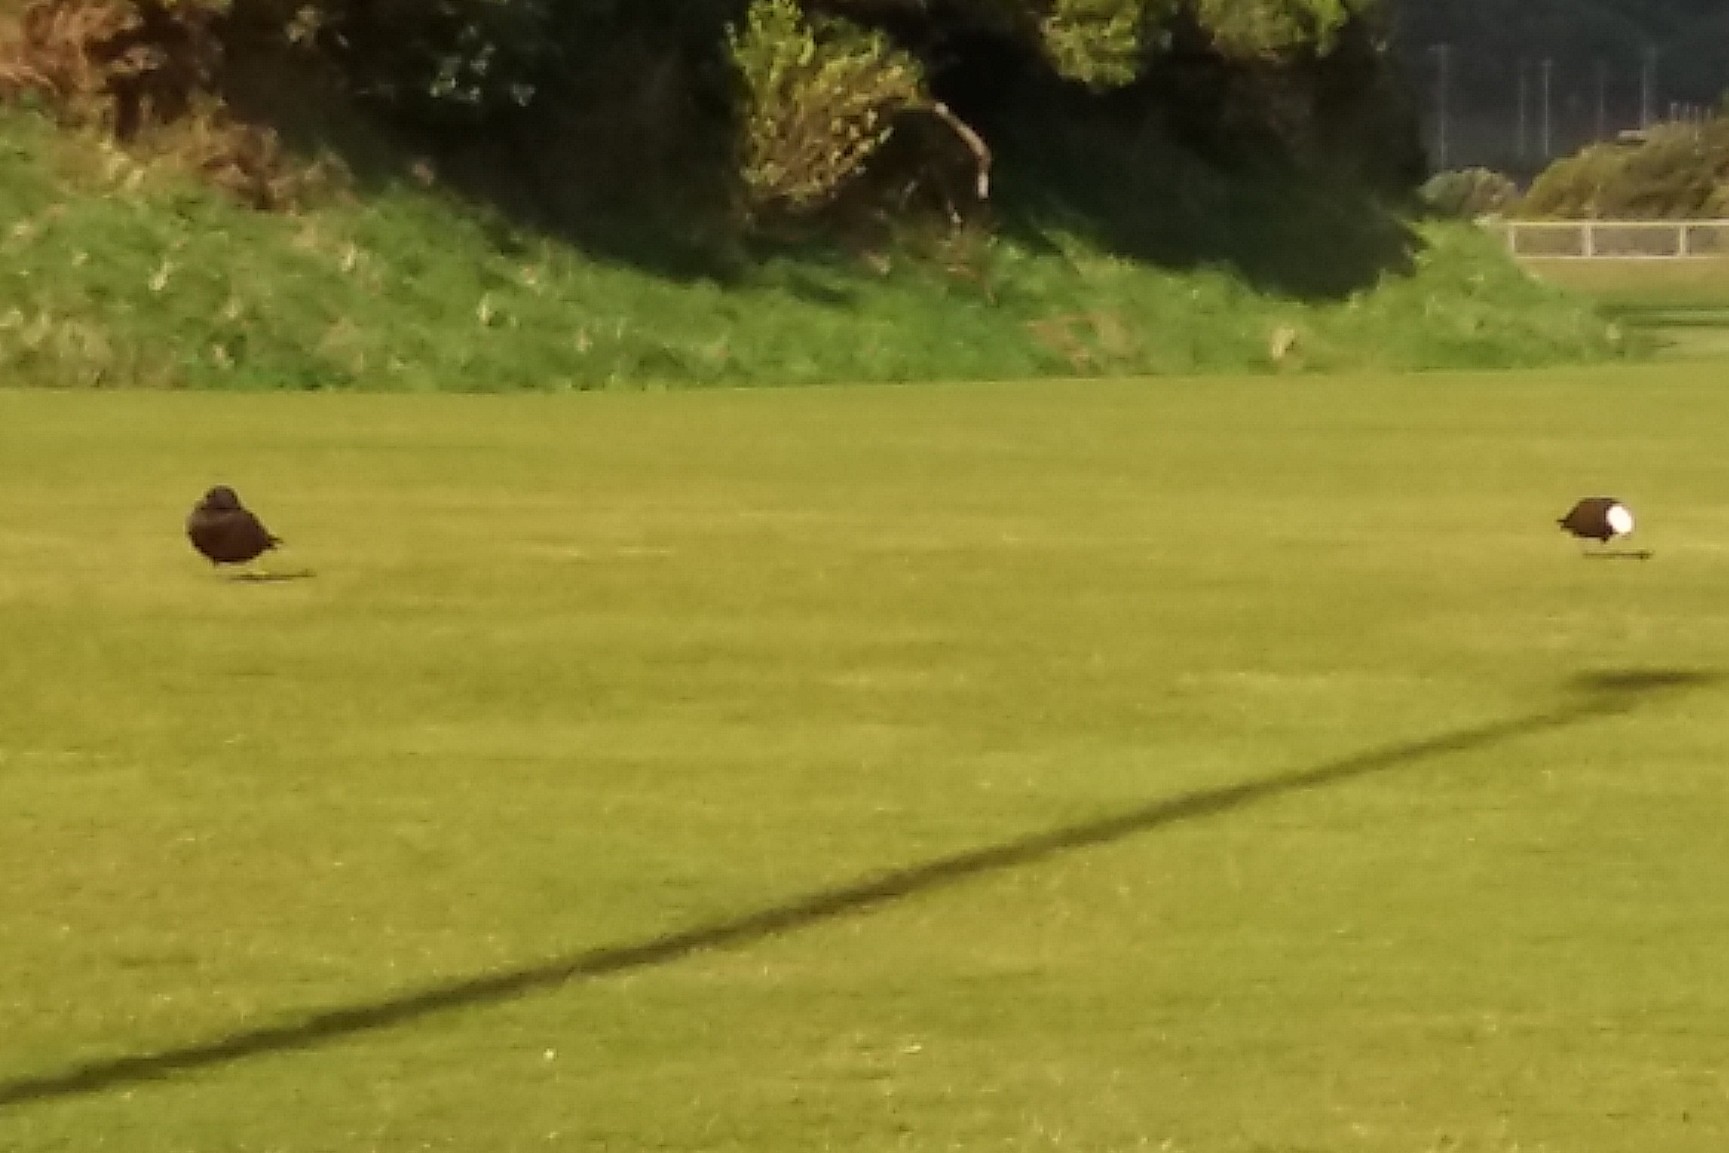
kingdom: Animalia
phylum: Chordata
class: Aves
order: Anseriformes
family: Anatidae
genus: Tadorna
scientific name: Tadorna variegata
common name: Paradise shelduck
